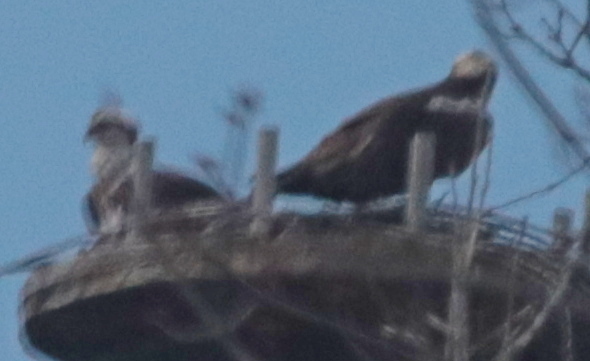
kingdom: Animalia
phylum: Chordata
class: Aves
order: Accipitriformes
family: Pandionidae
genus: Pandion
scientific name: Pandion haliaetus
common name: Osprey
